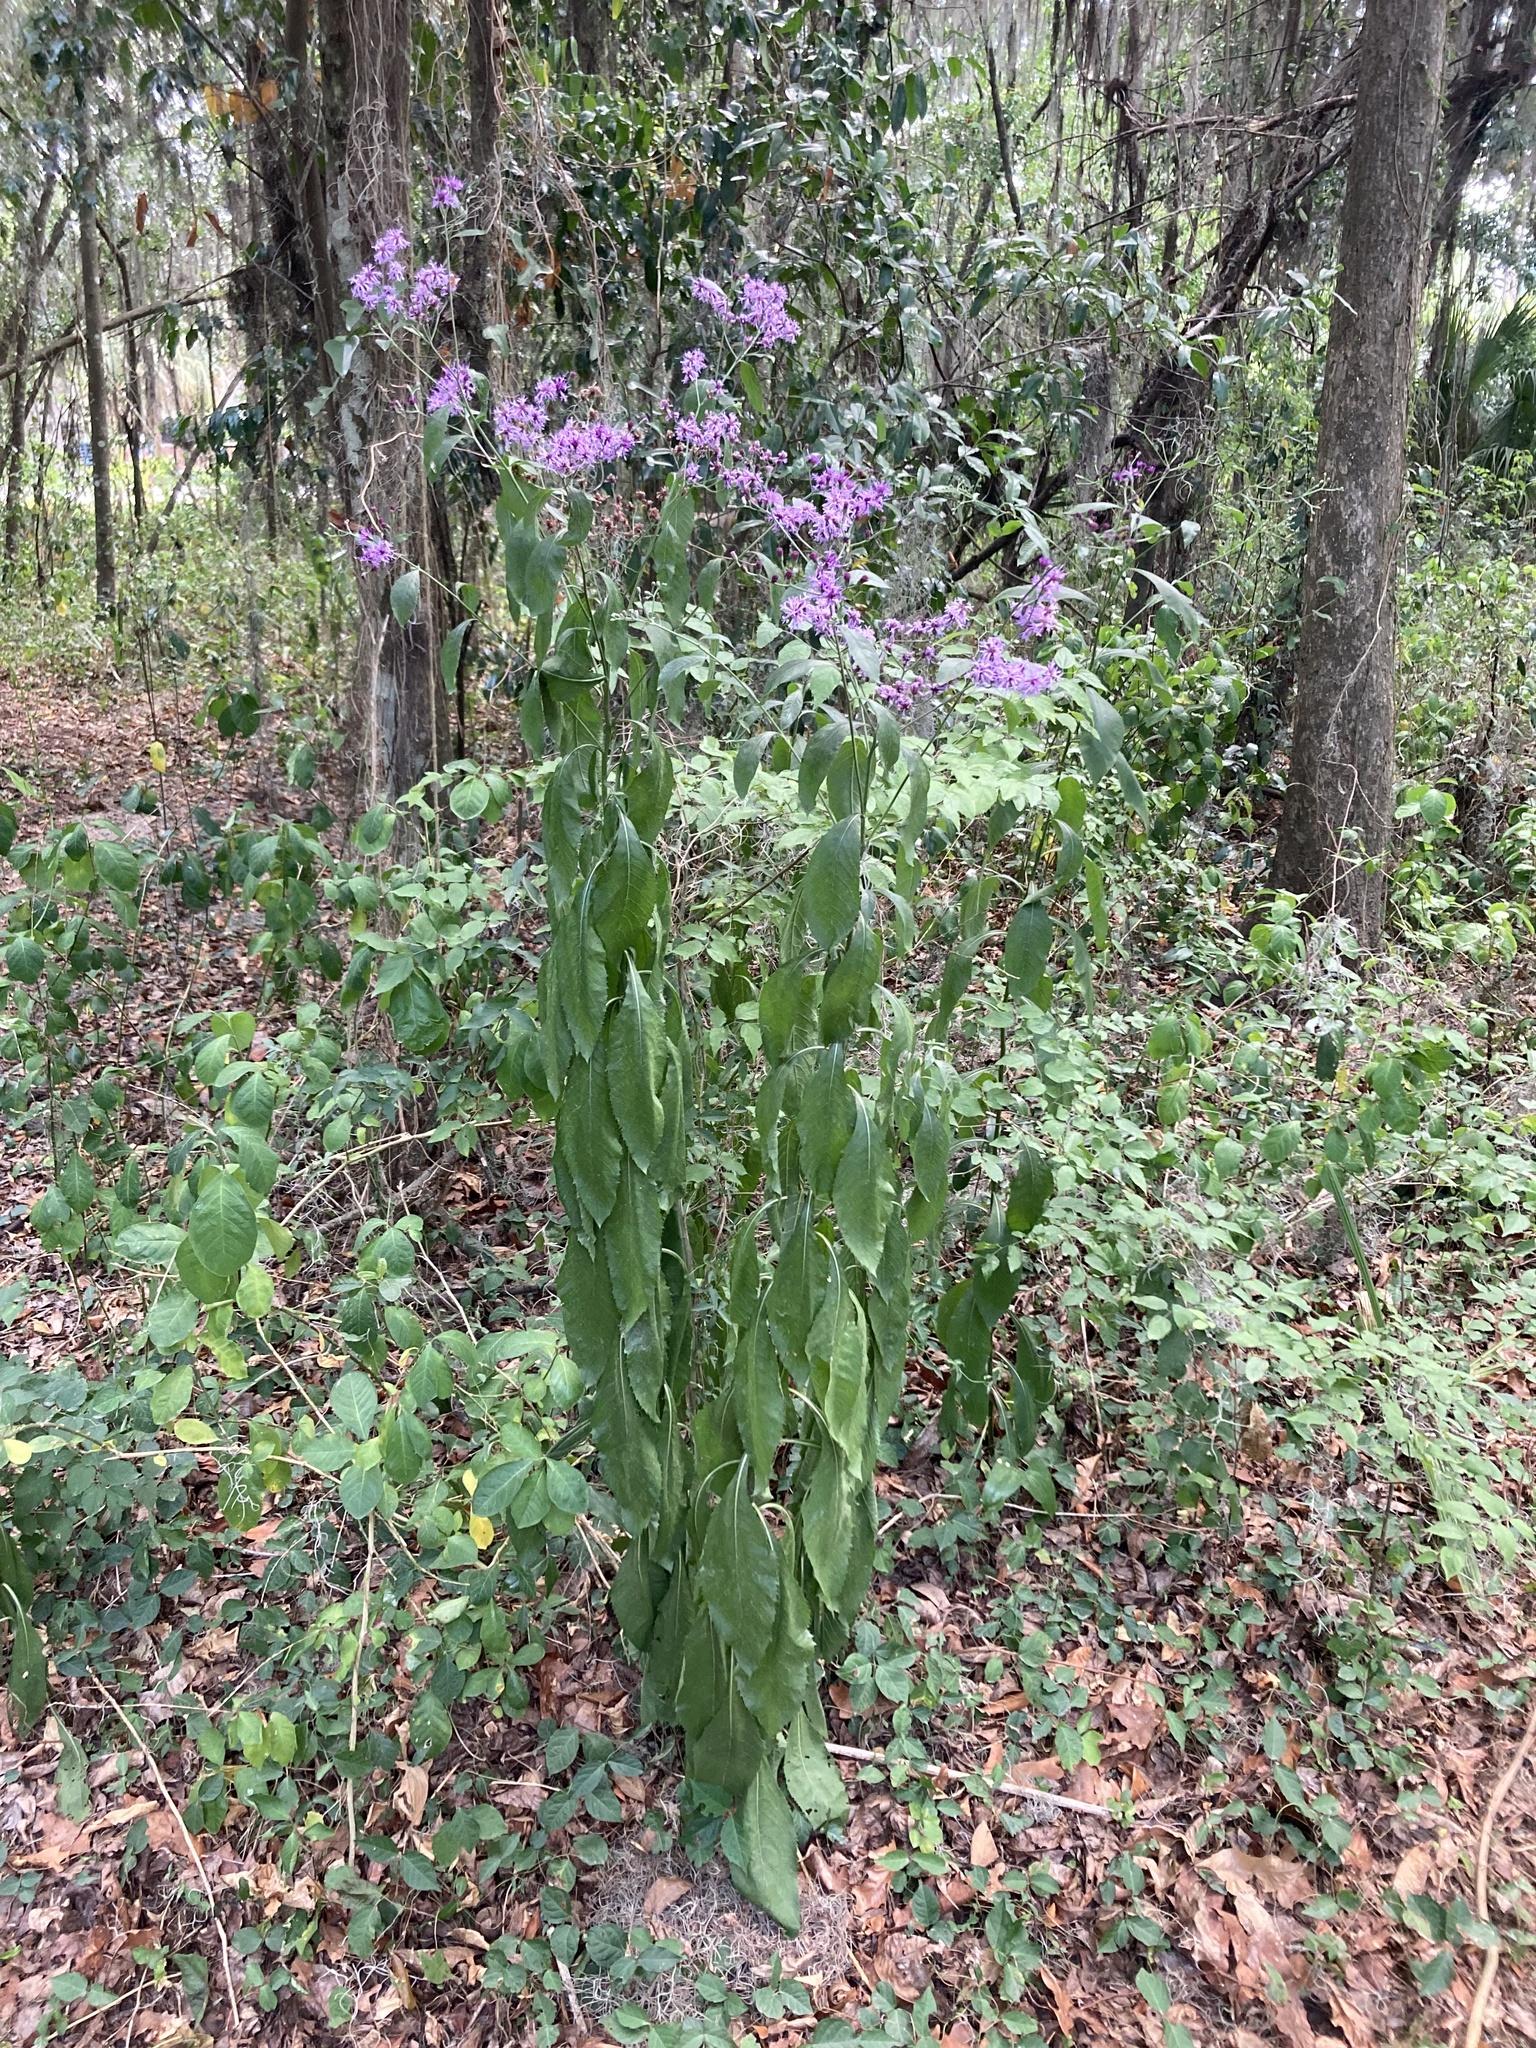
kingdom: Plantae
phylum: Tracheophyta
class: Magnoliopsida
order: Asterales
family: Asteraceae
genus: Vernonia
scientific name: Vernonia gigantea
